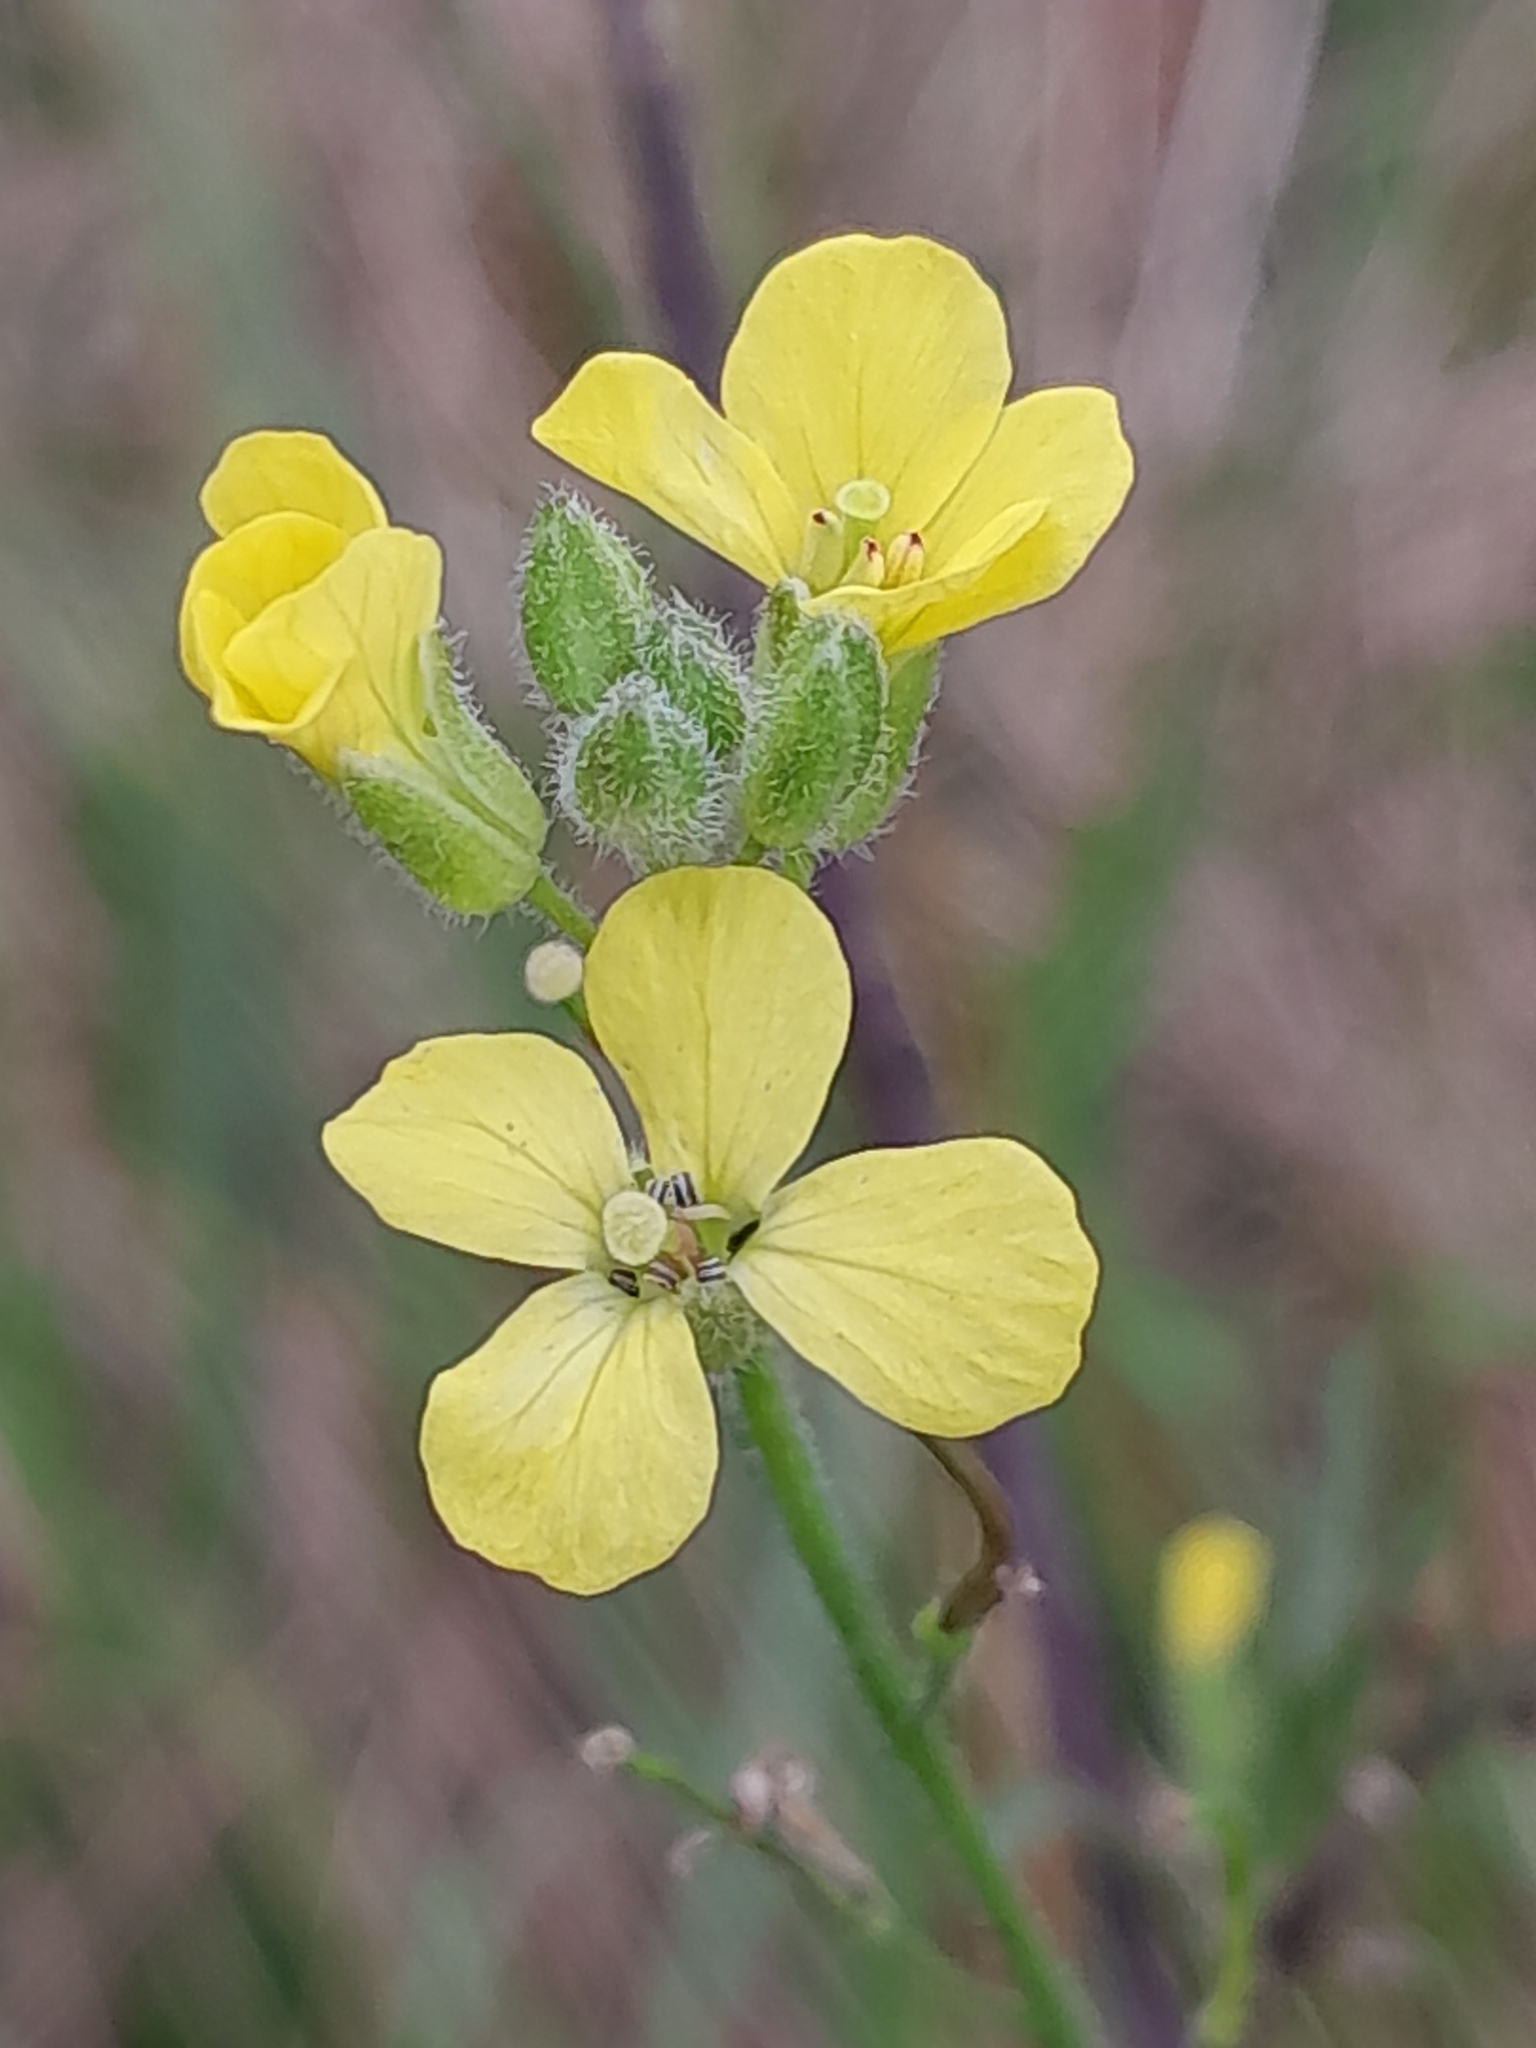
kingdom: Plantae
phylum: Tracheophyta
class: Magnoliopsida
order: Brassicales
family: Brassicaceae
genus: Sisymbrium
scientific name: Sisymbrium orientale
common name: Eastern rocket
